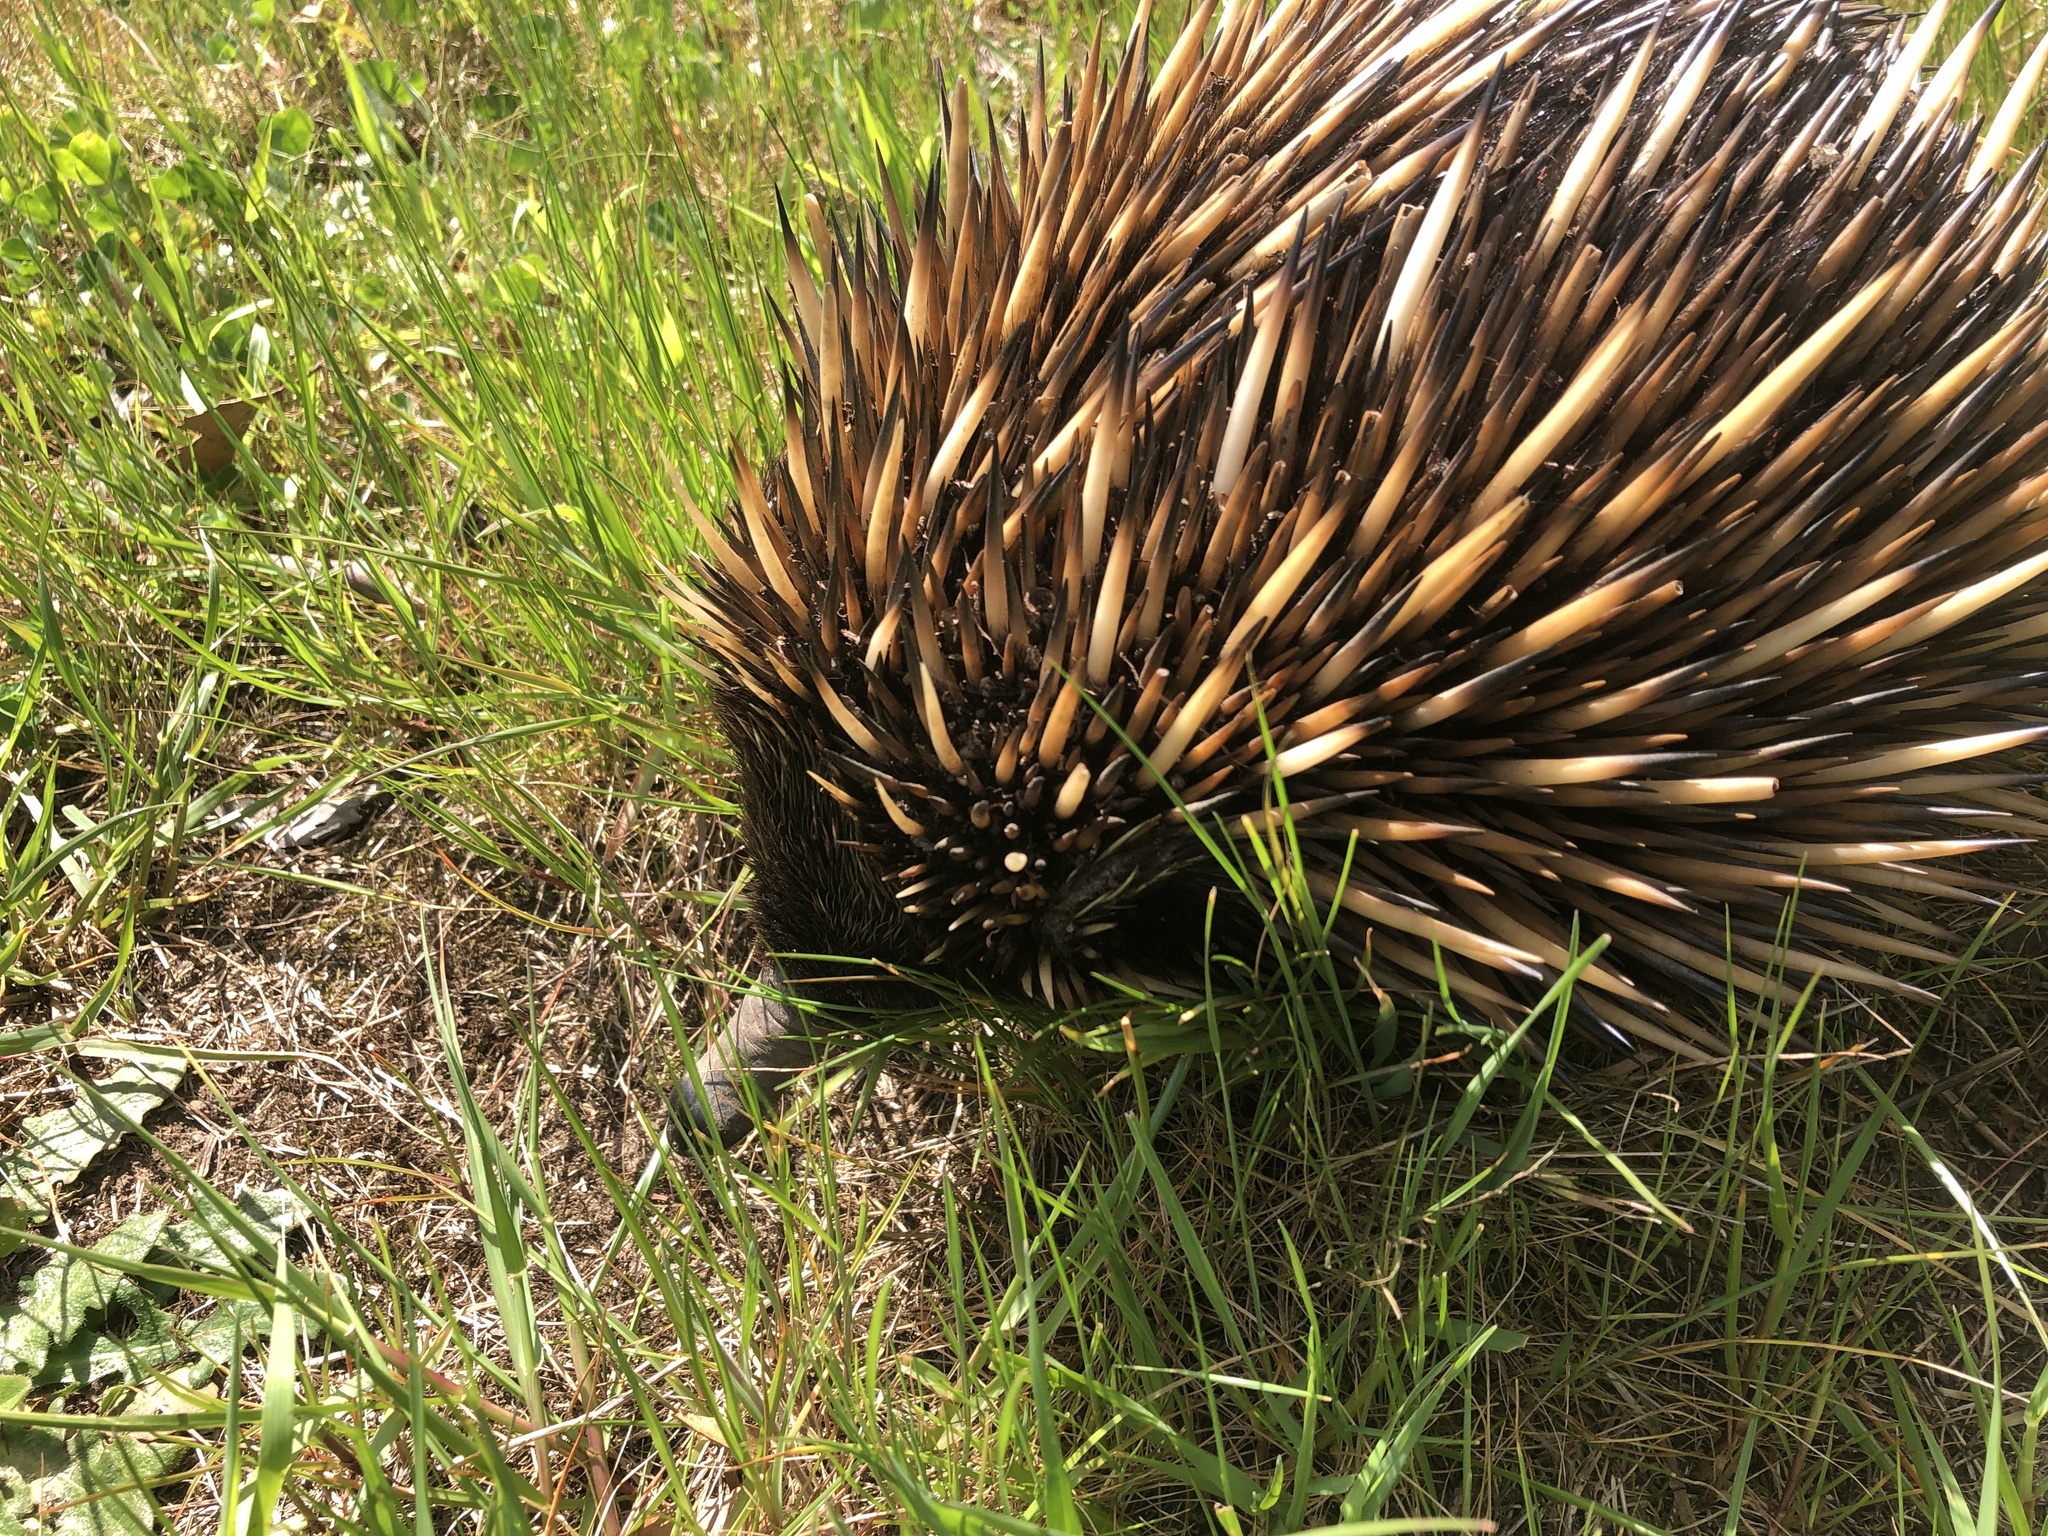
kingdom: Animalia
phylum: Chordata
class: Mammalia
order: Monotremata
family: Tachyglossidae
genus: Tachyglossus
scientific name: Tachyglossus aculeatus
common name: Short-beaked echidna
